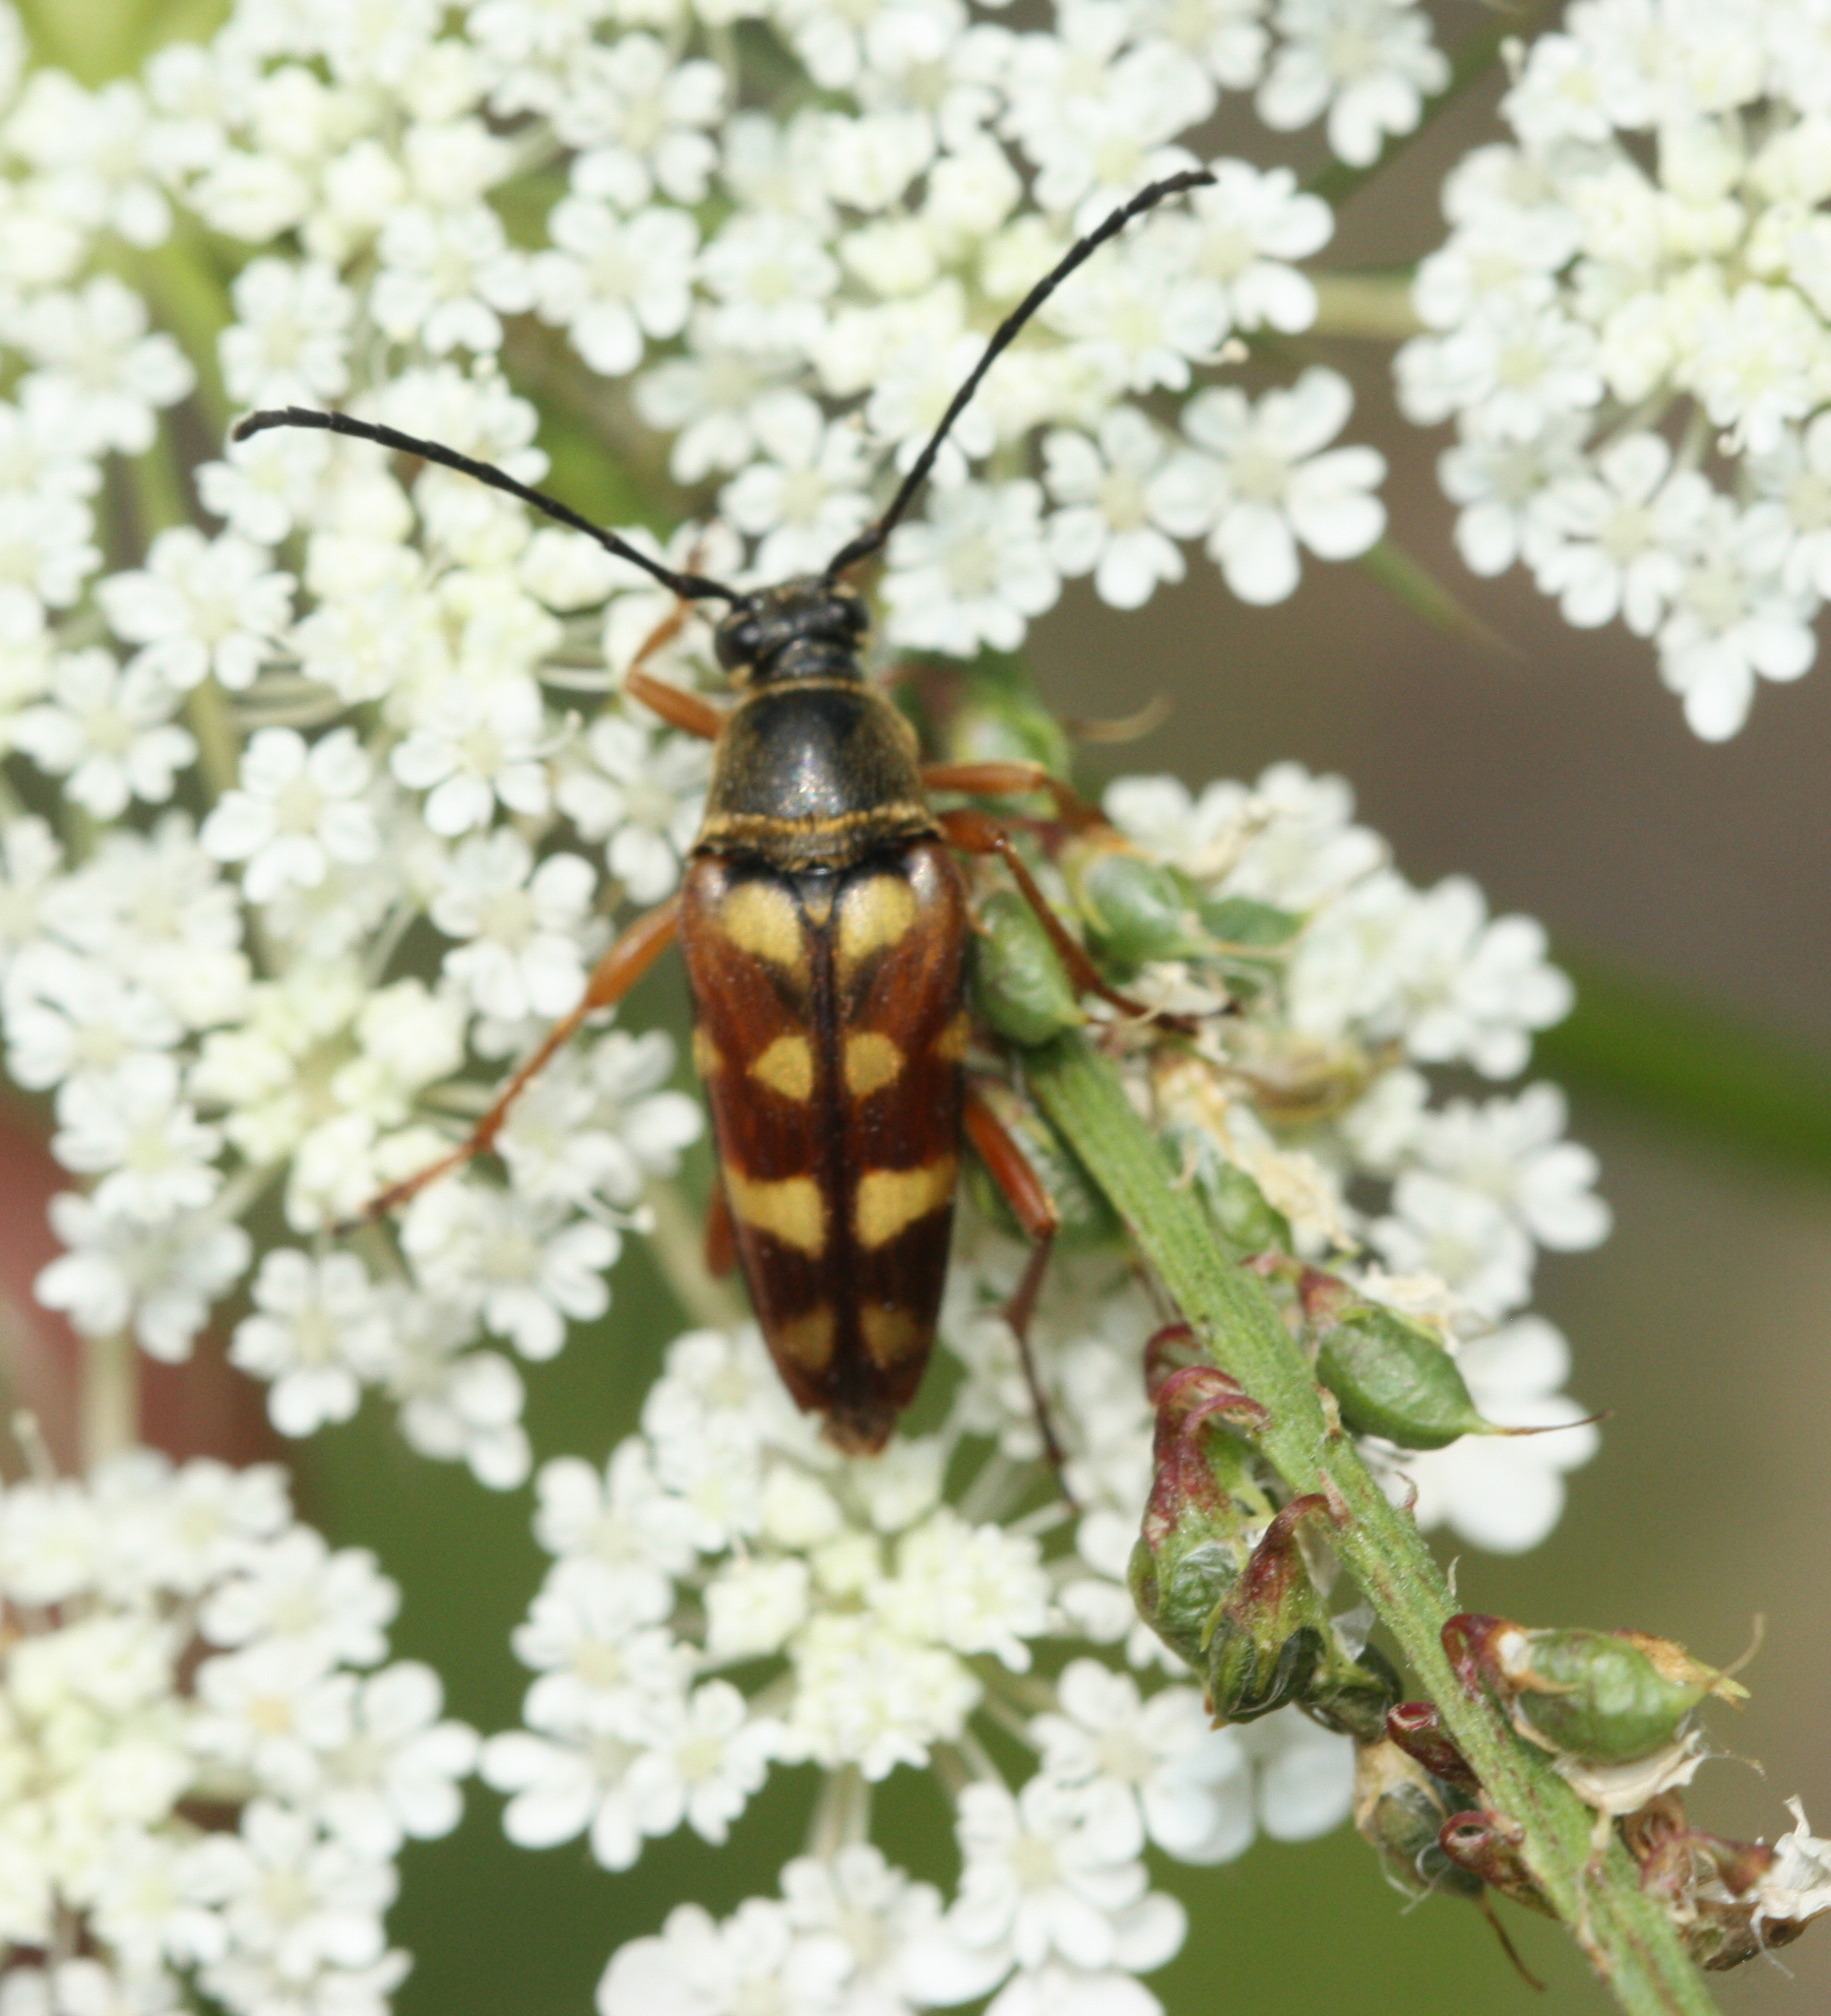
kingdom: Animalia
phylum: Arthropoda
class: Insecta
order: Coleoptera
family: Cerambycidae
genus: Typocerus
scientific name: Typocerus velutinus
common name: Banded longhorn beetle
